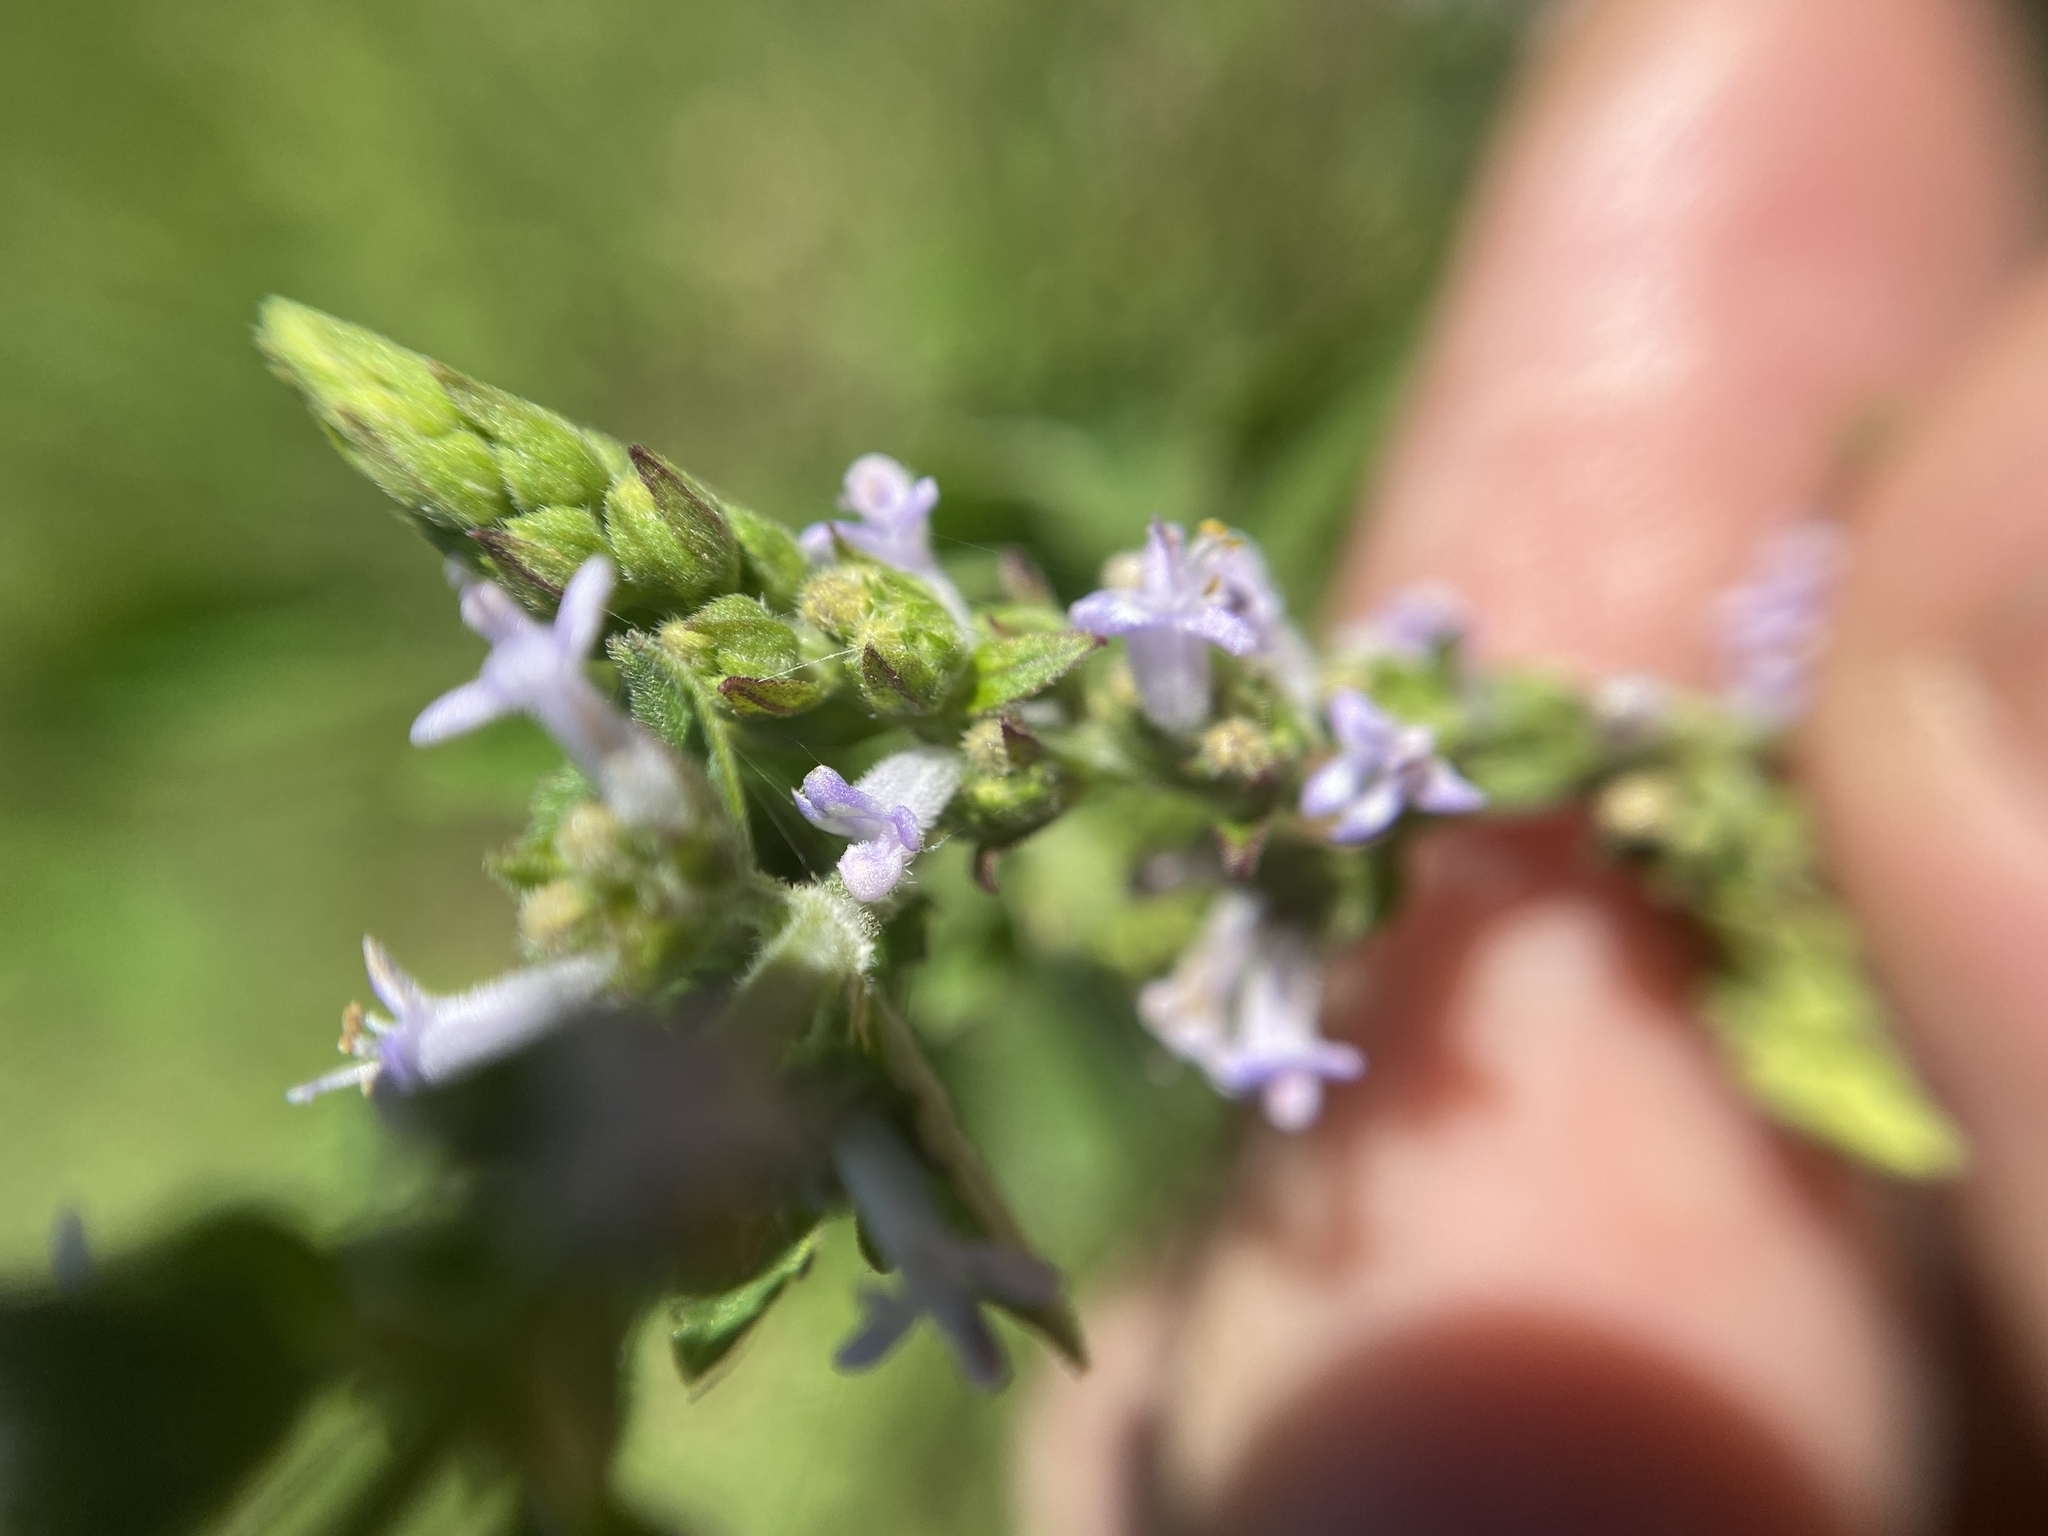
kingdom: Plantae
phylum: Tracheophyta
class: Magnoliopsida
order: Lamiales
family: Lamiaceae
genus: Cantinoa
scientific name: Cantinoa mutabilis
